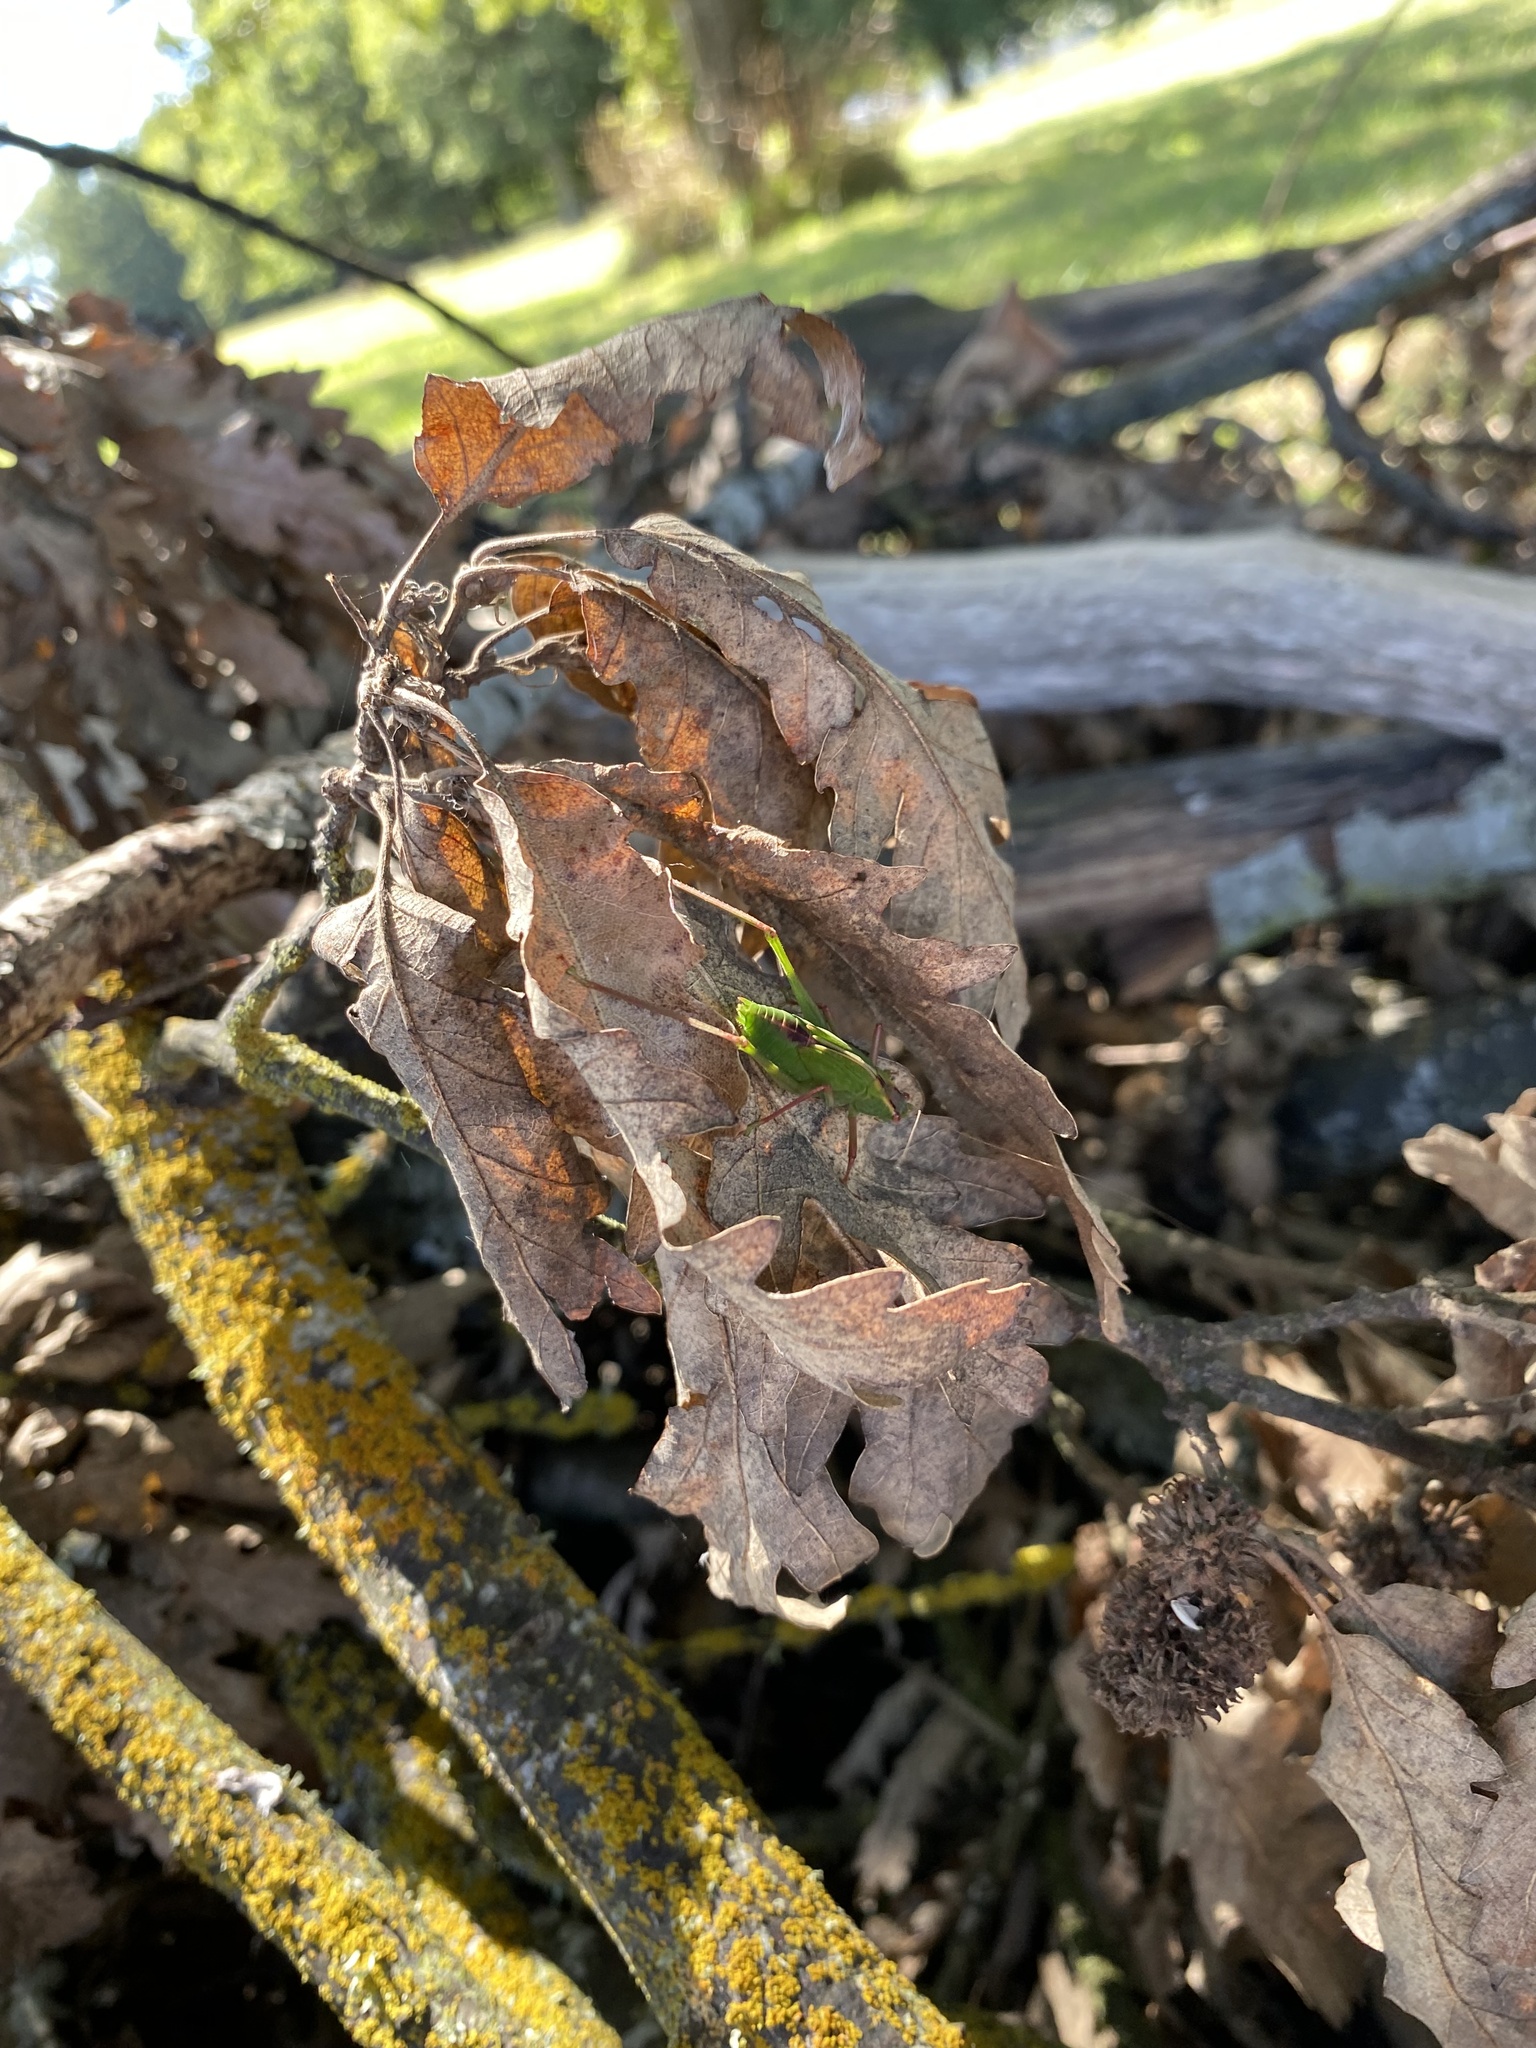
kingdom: Animalia
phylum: Arthropoda
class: Insecta
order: Orthoptera
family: Tettigoniidae
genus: Caedicia
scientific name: Caedicia simplex
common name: Common garden katydid
